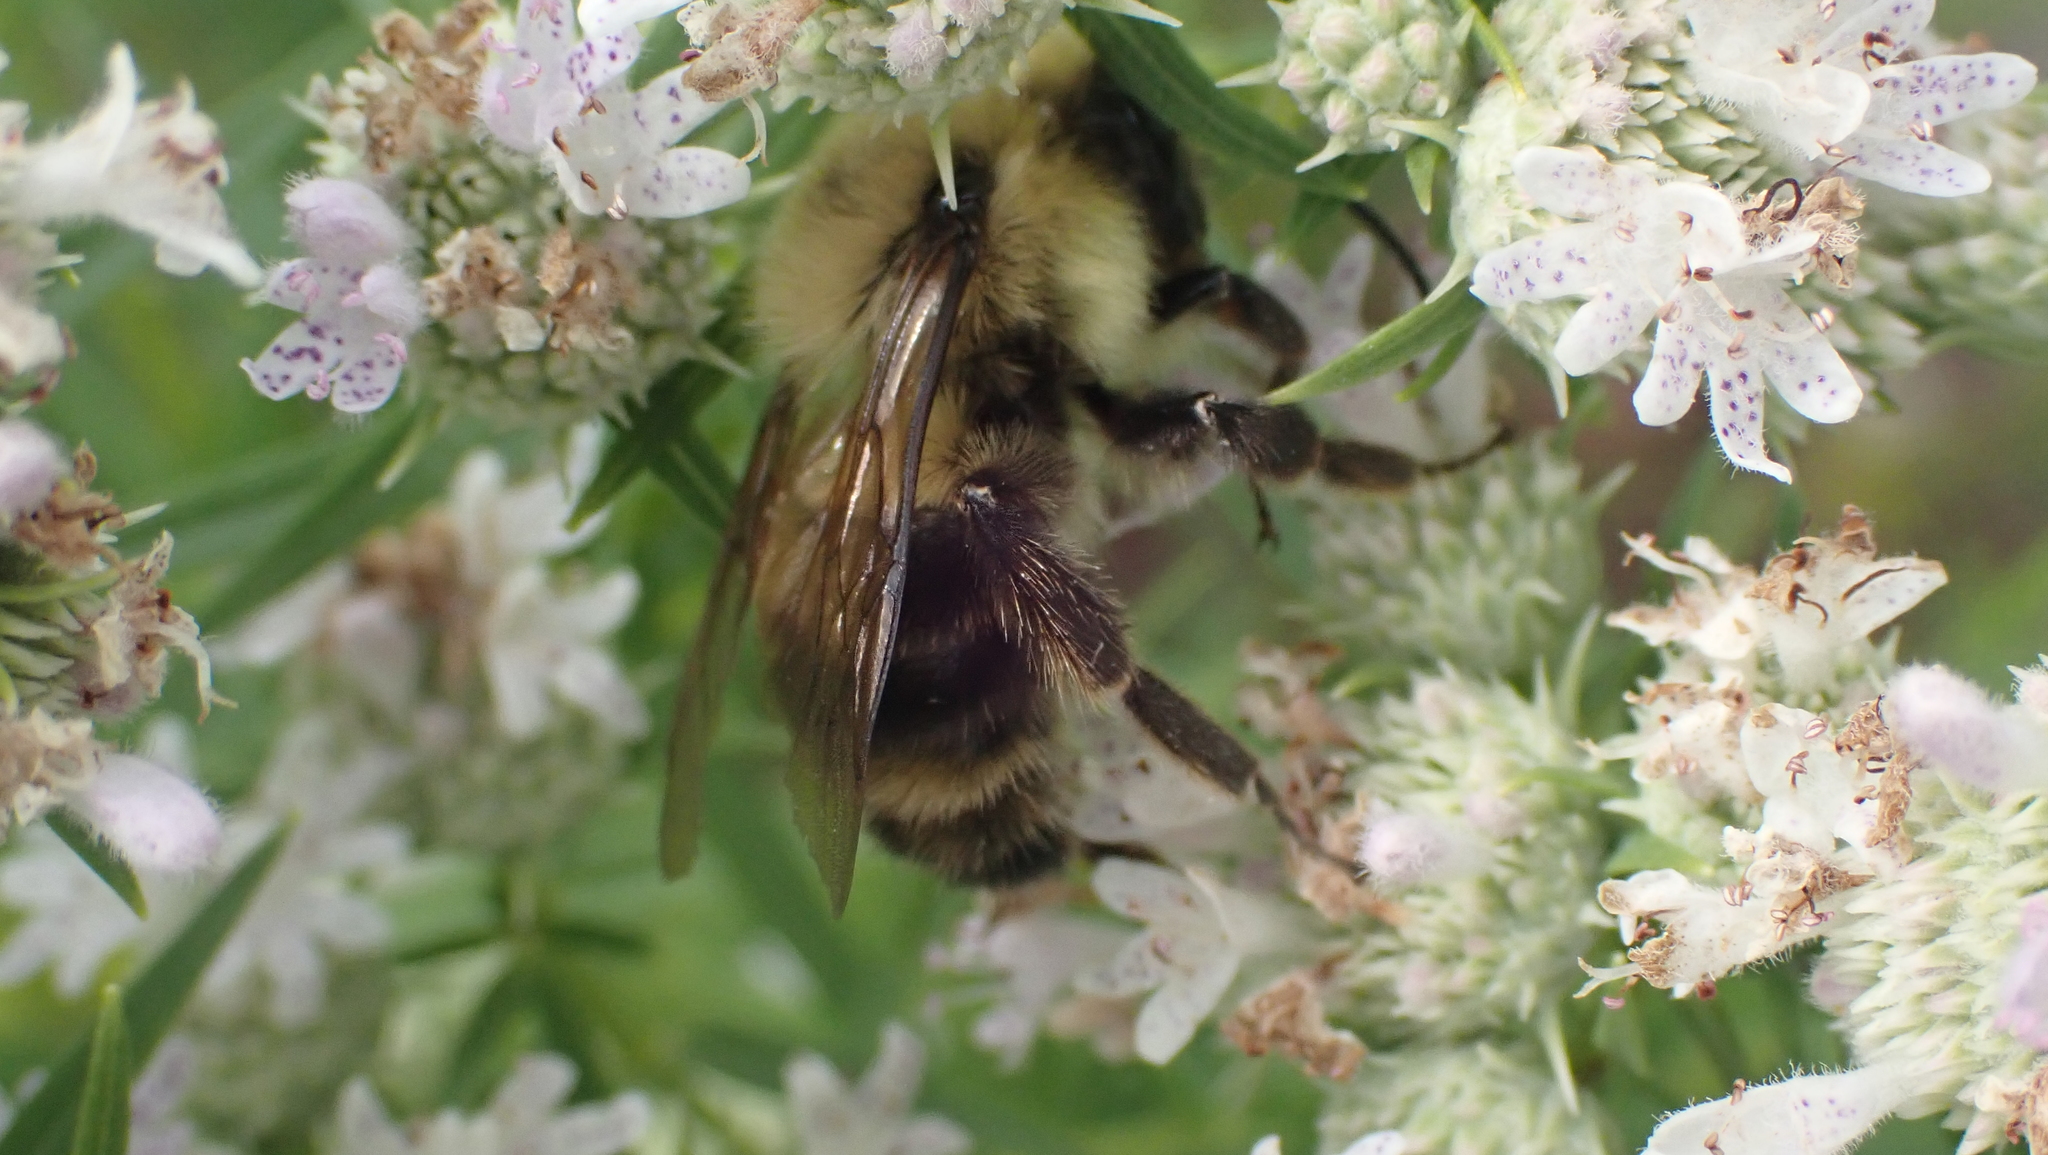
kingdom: Animalia
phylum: Arthropoda
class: Insecta
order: Hymenoptera
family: Apidae
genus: Bombus
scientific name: Bombus bimaculatus
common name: Two-spotted bumble bee
